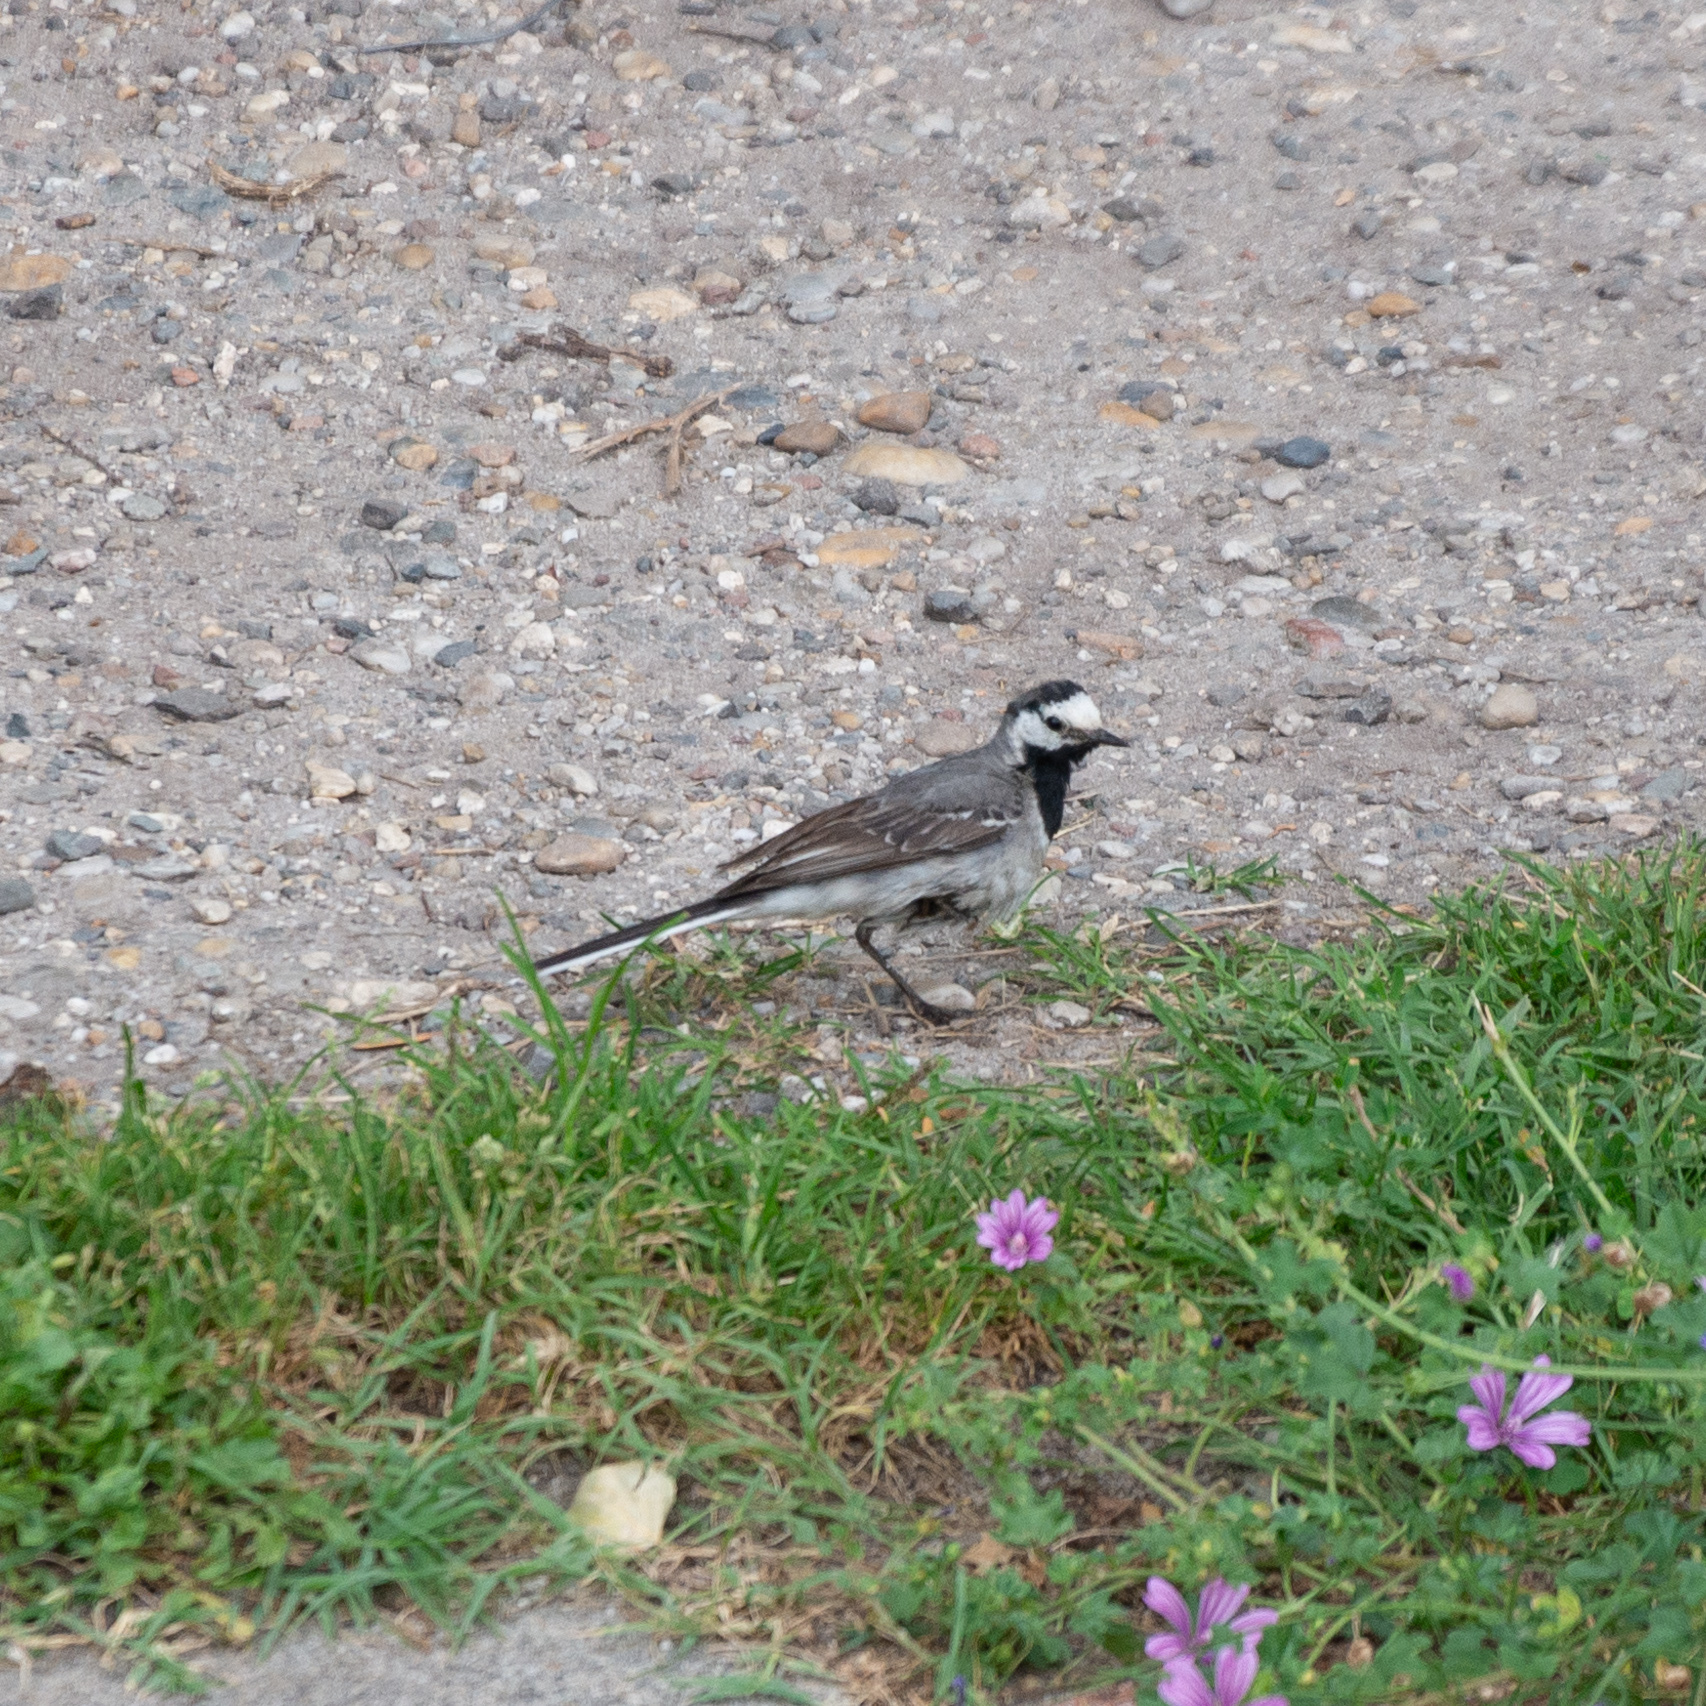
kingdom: Animalia
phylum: Chordata
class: Aves
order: Passeriformes
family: Motacillidae
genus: Motacilla
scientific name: Motacilla alba
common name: White wagtail
